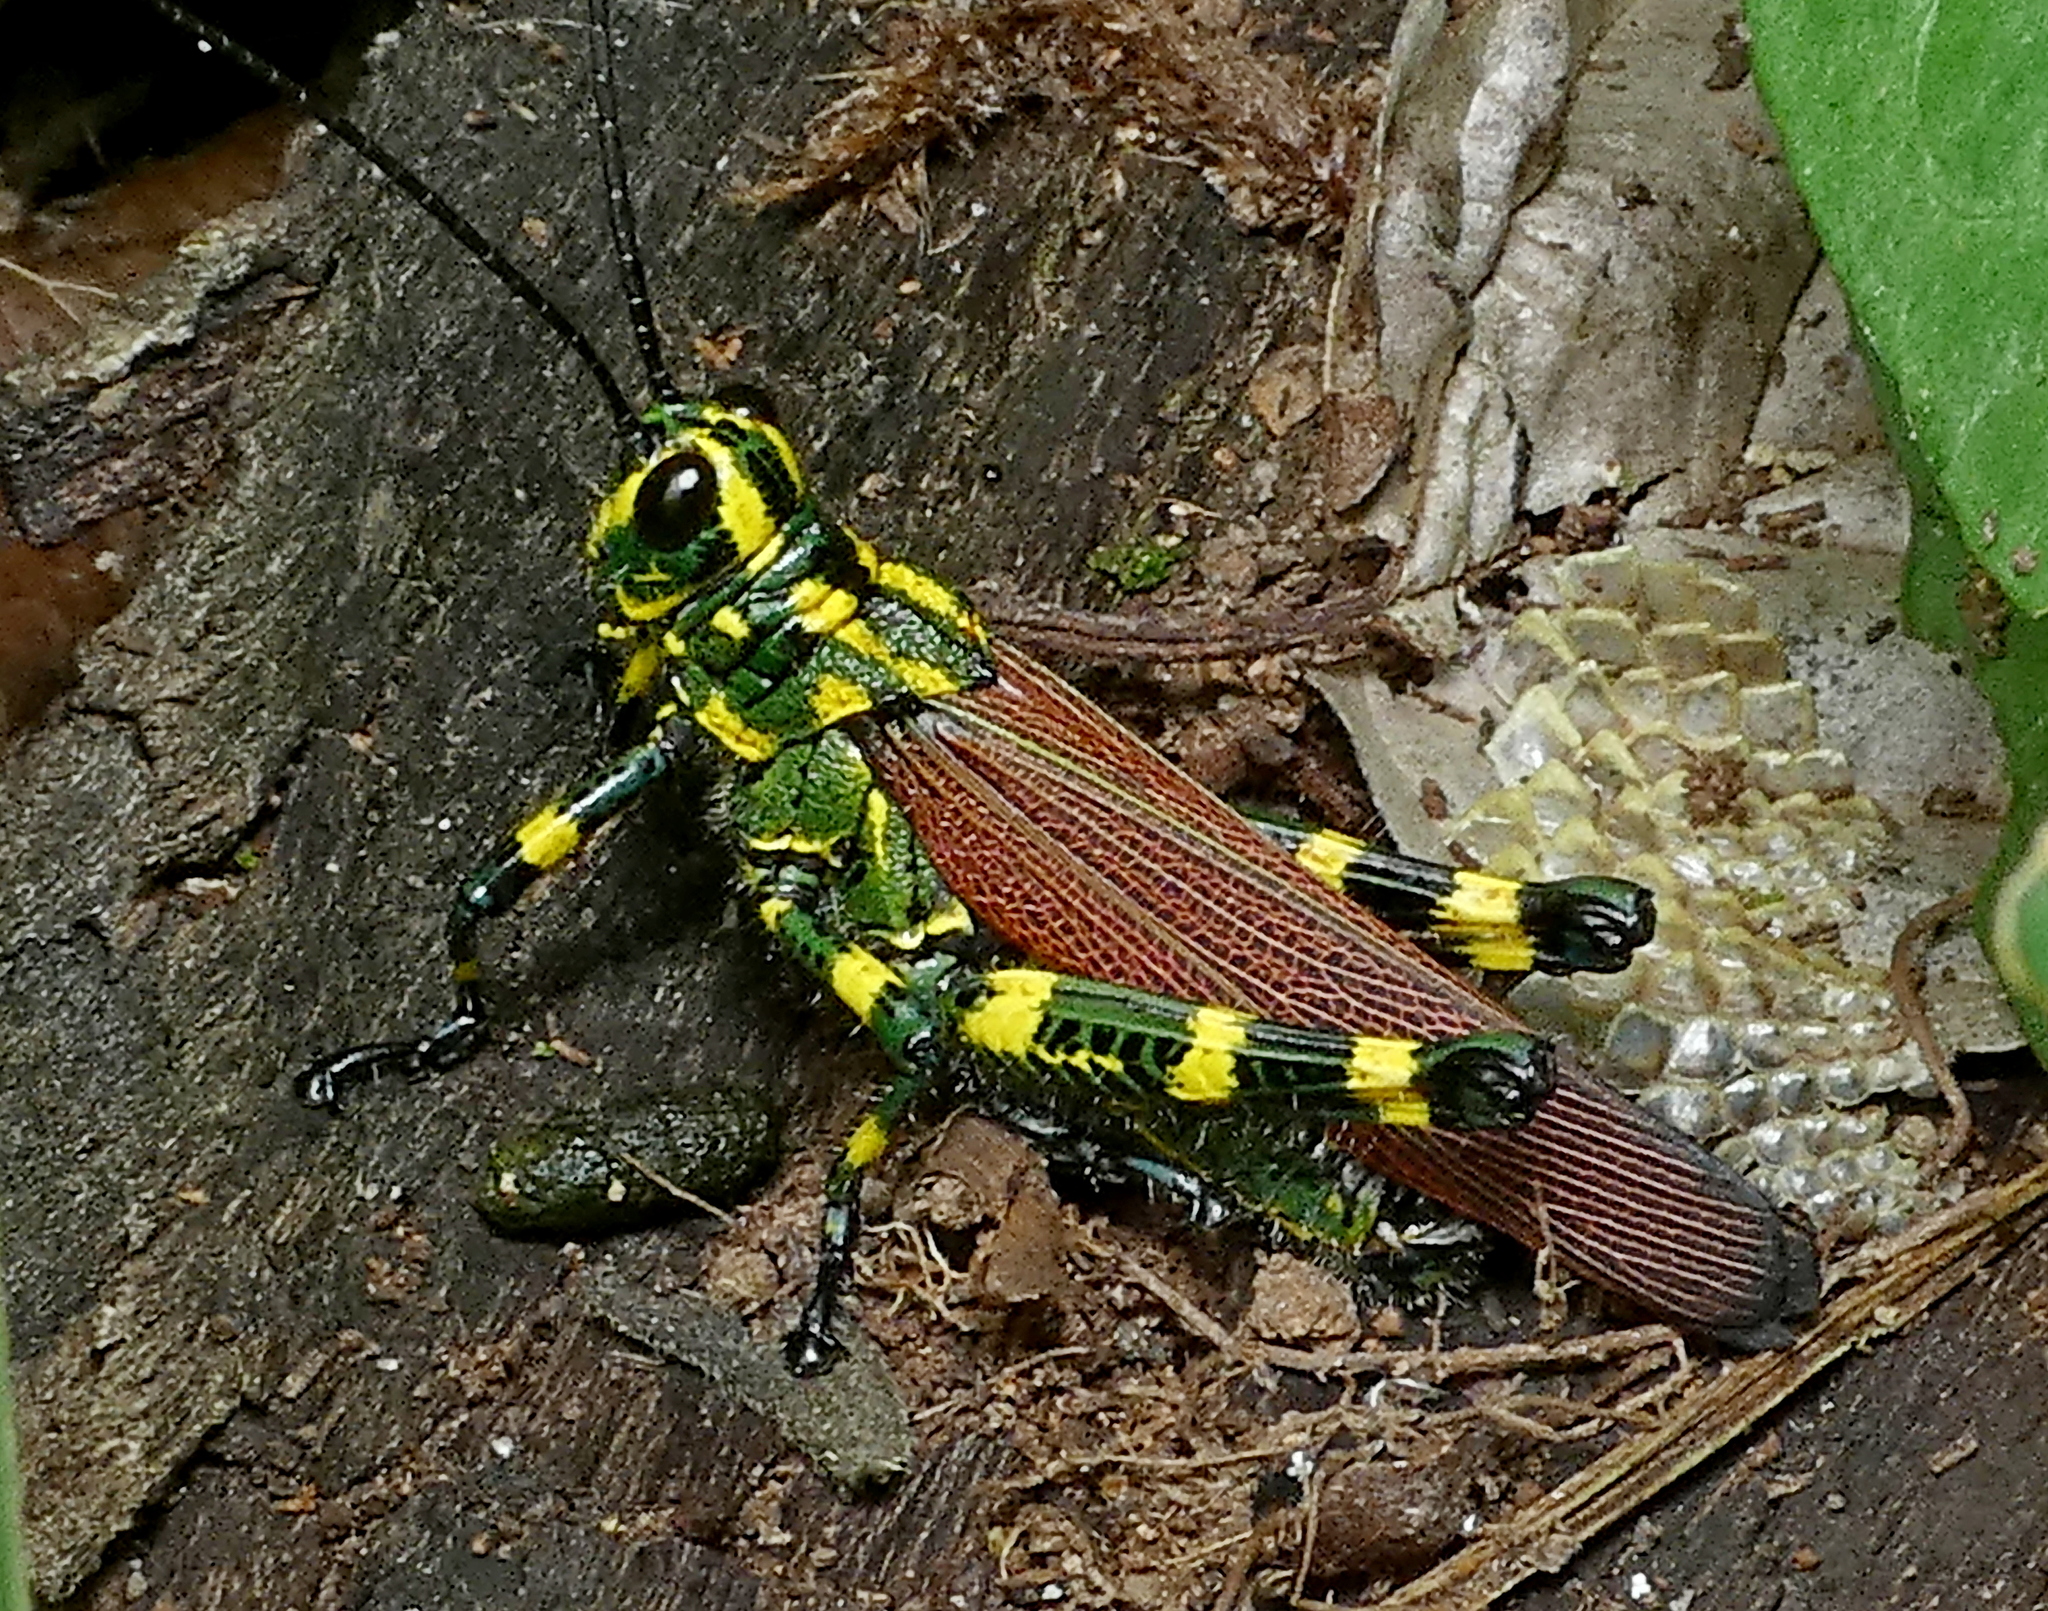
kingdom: Animalia
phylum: Arthropoda
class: Insecta
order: Orthoptera
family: Romaleidae
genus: Chromacris
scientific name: Chromacris speciosa
